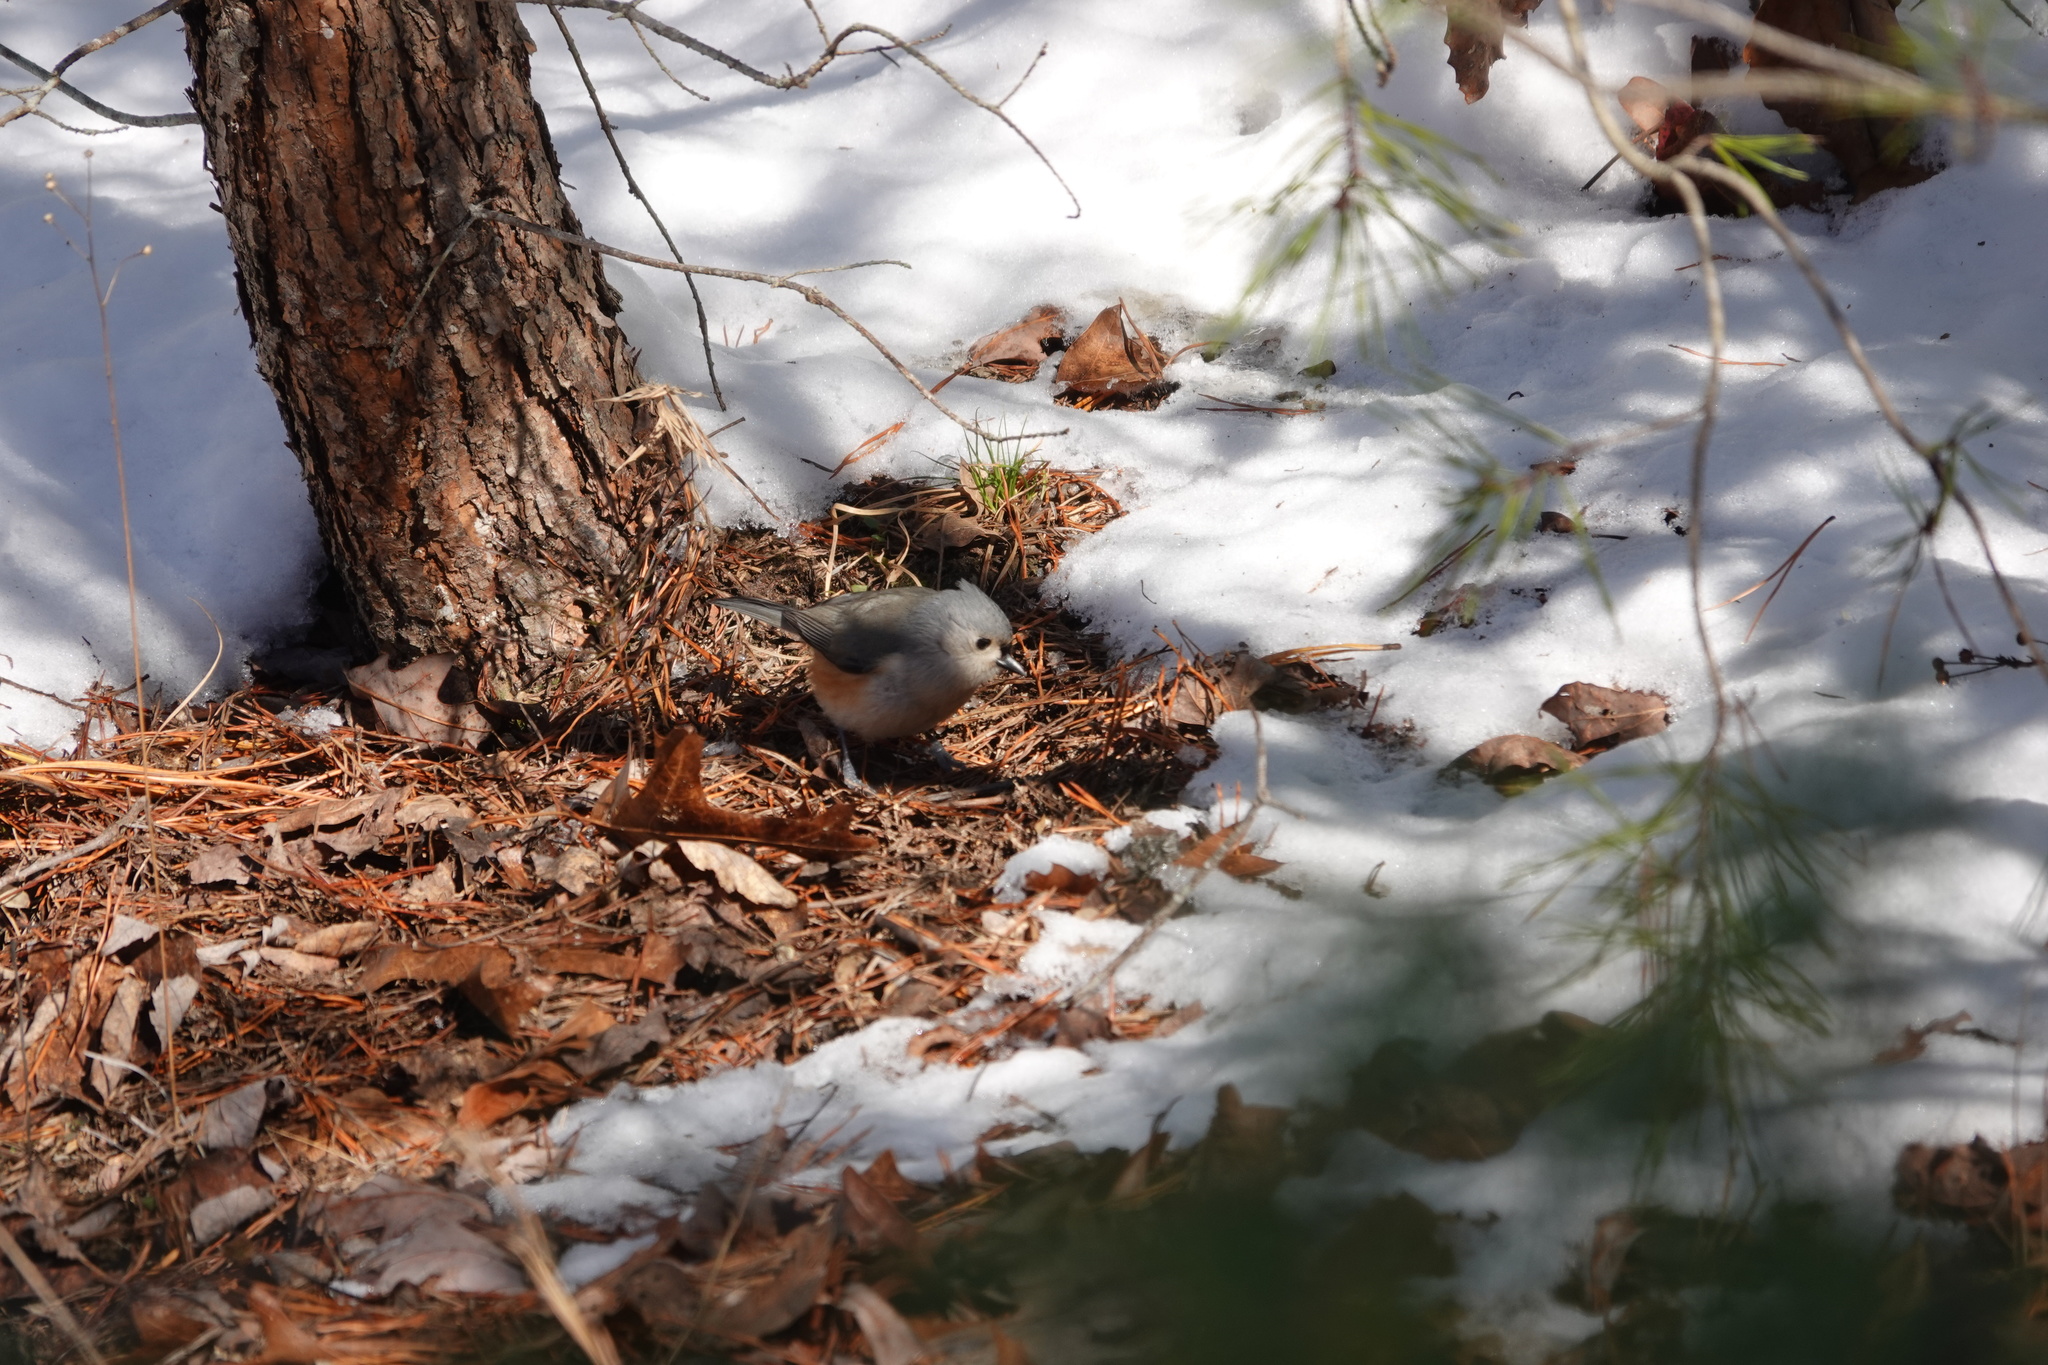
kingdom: Animalia
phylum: Chordata
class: Aves
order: Passeriformes
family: Paridae
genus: Baeolophus
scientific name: Baeolophus bicolor
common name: Tufted titmouse
